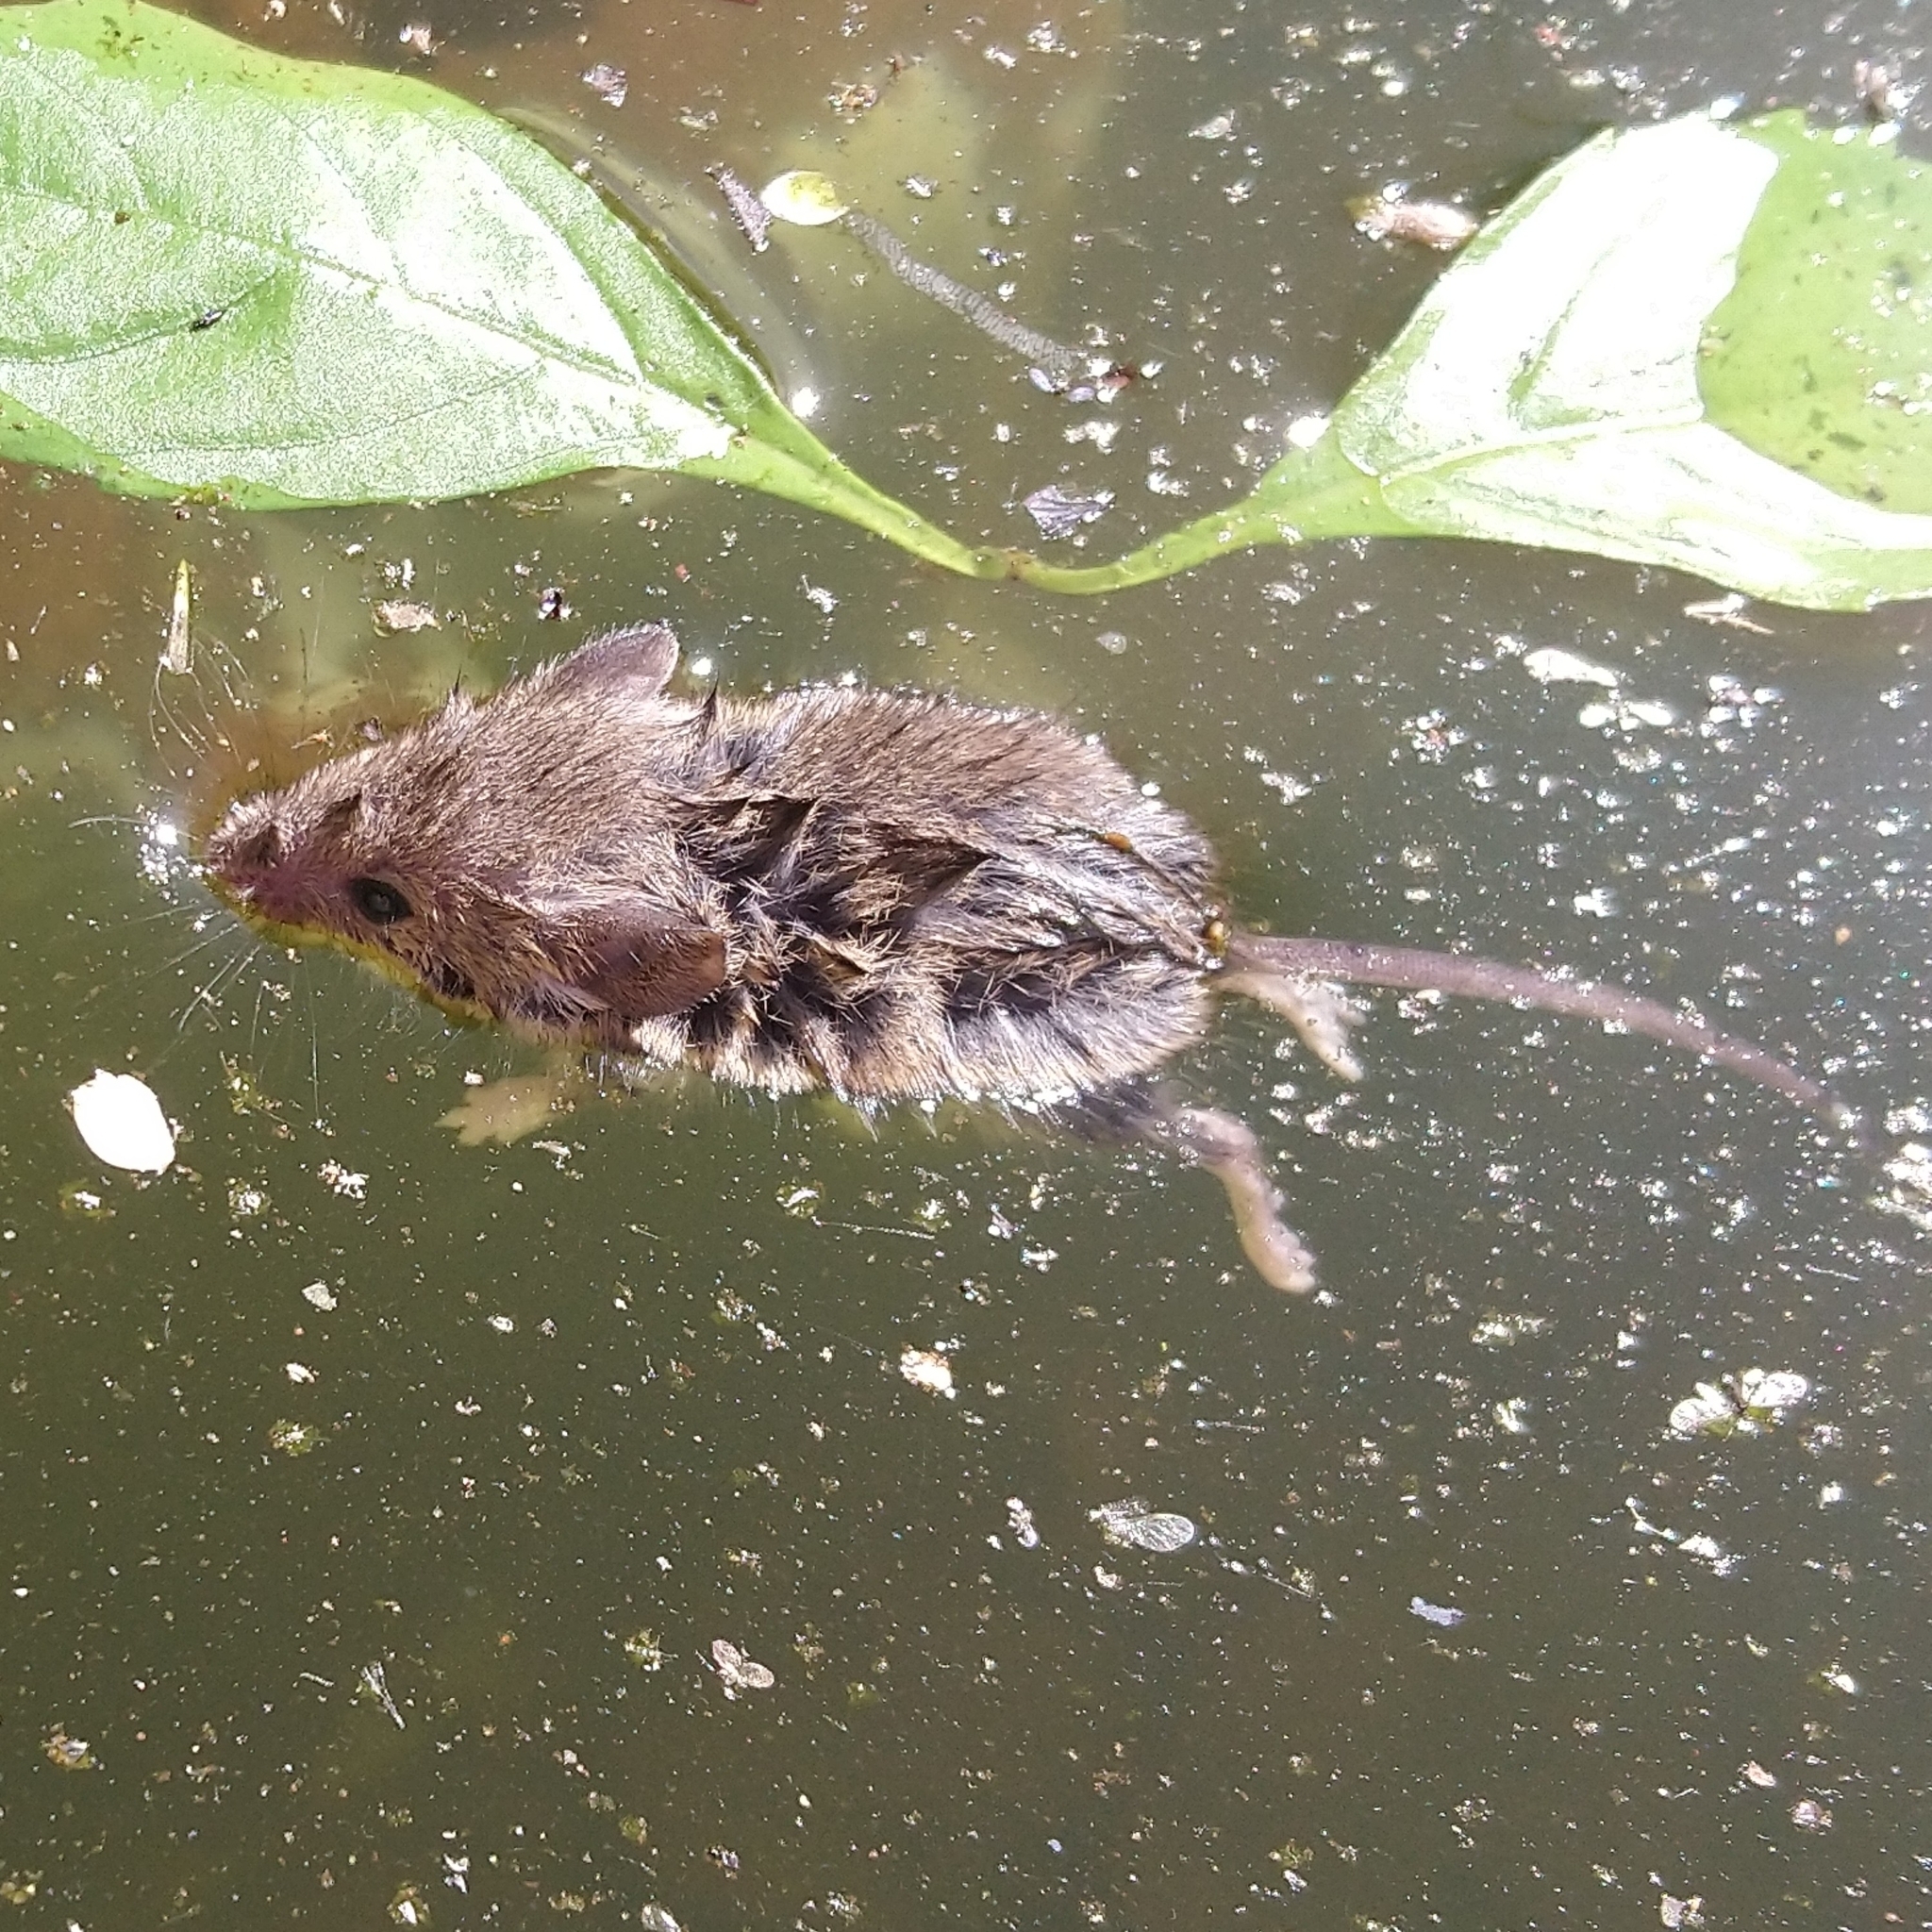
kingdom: Animalia
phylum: Chordata
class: Mammalia
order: Rodentia
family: Muridae
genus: Mus
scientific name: Mus minutoides
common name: Southern african pygmy mouse
